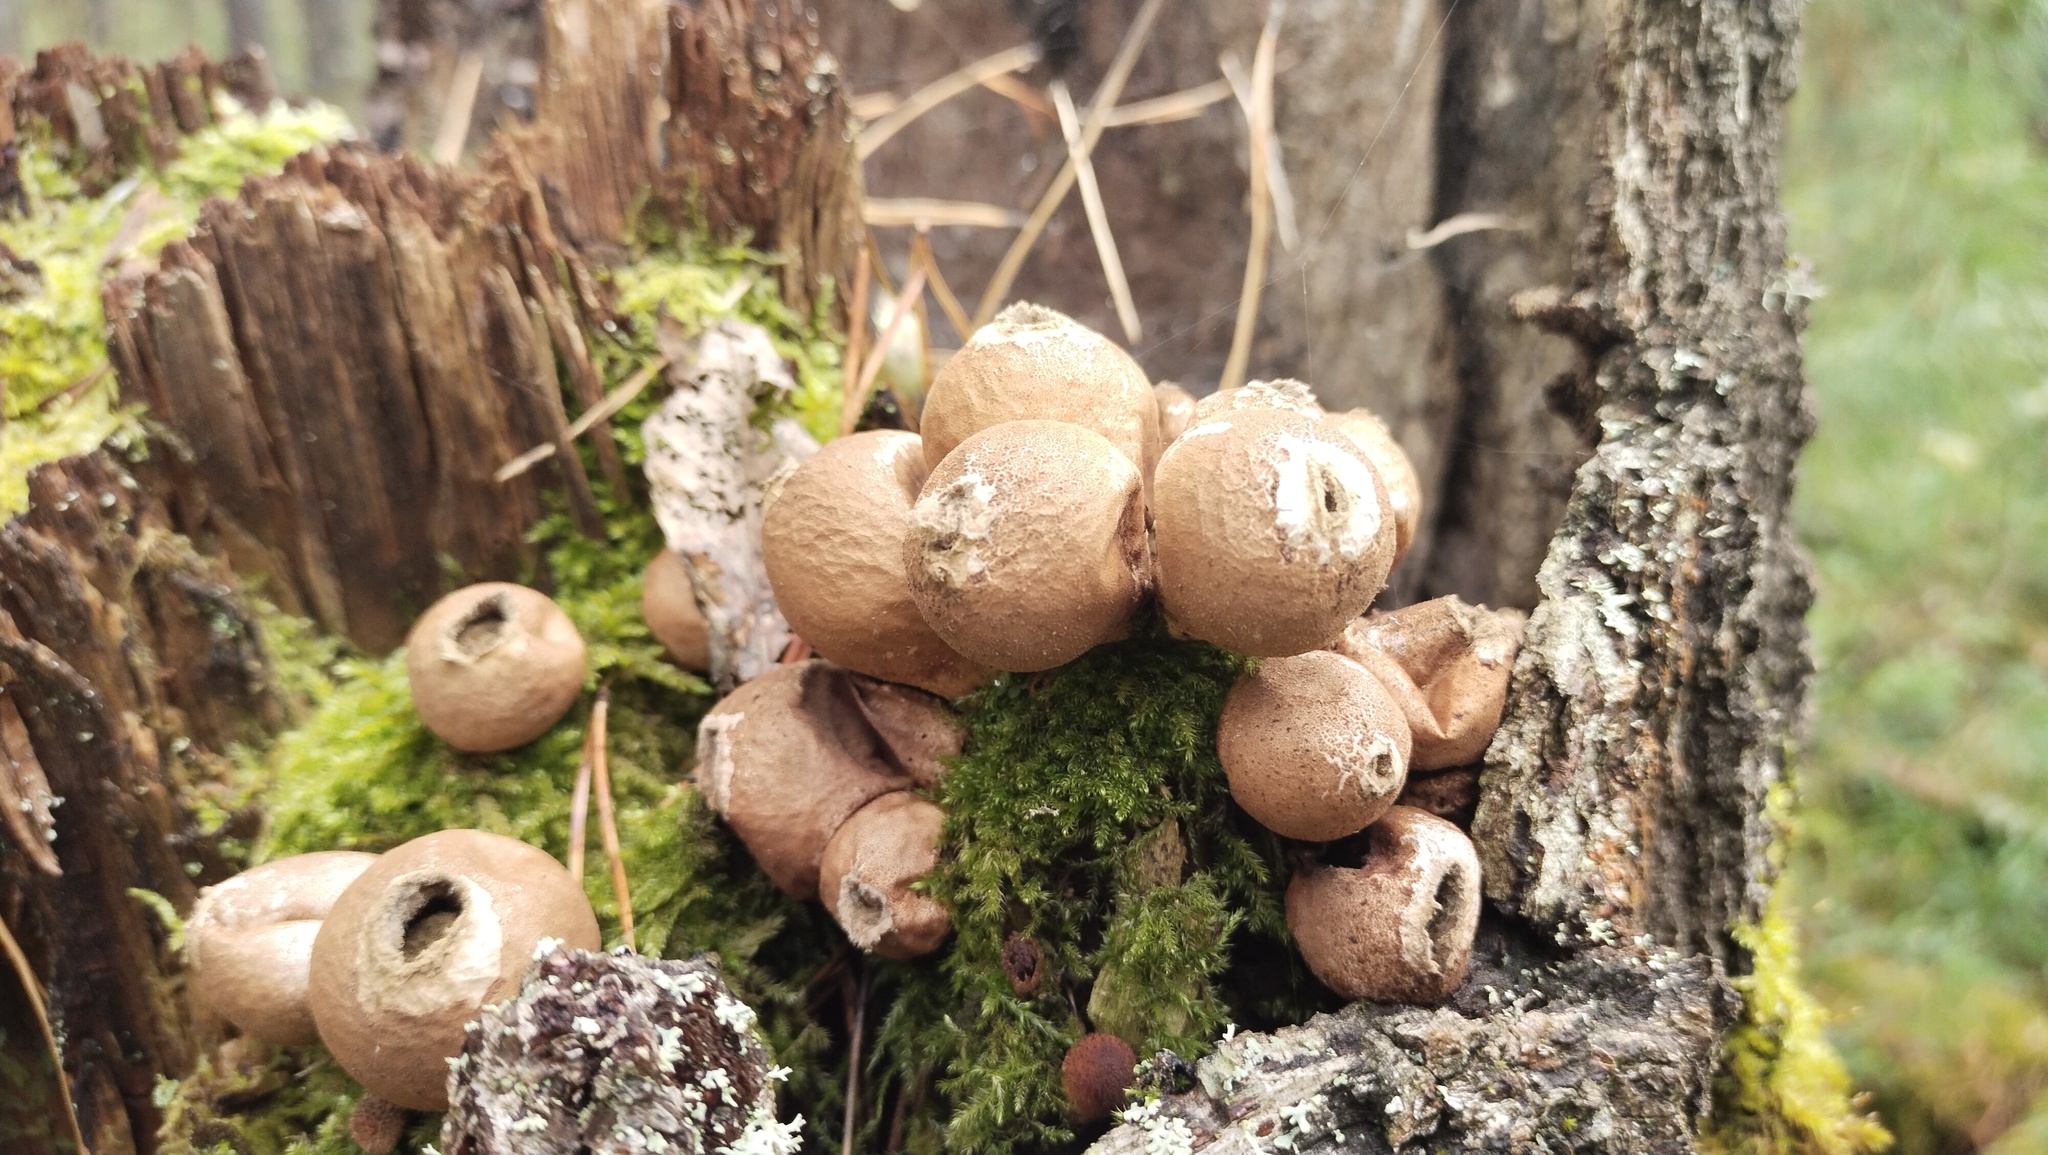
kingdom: Fungi
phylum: Basidiomycota
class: Agaricomycetes
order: Agaricales
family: Lycoperdaceae
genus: Apioperdon
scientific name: Apioperdon pyriforme
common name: Pear-shaped puffball
